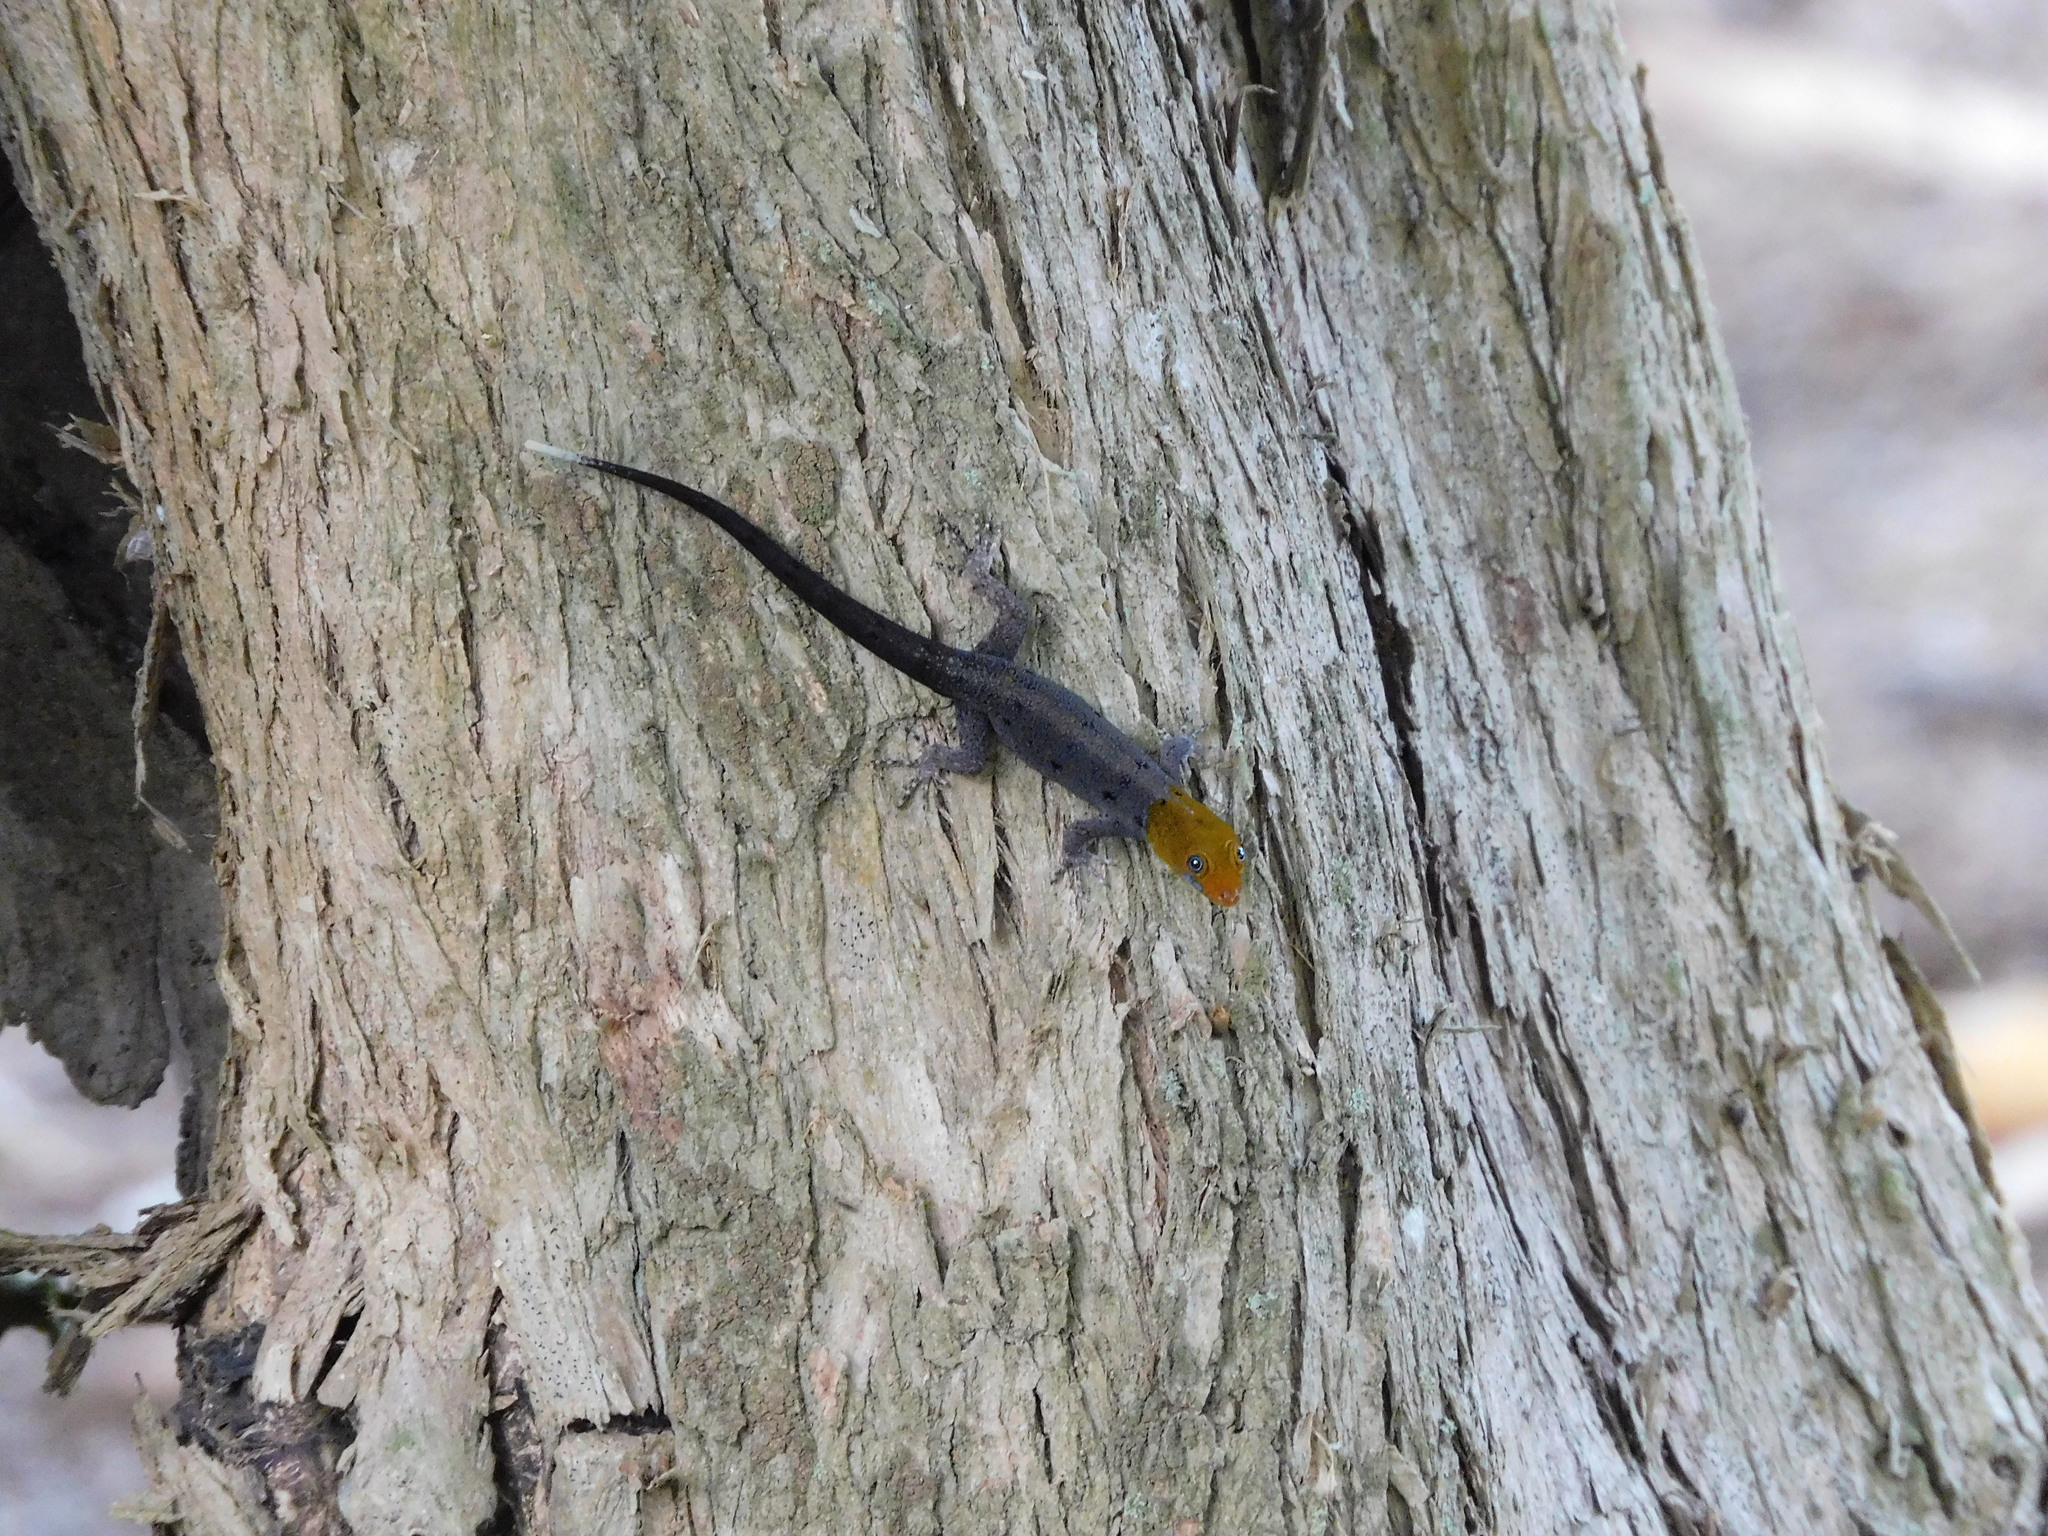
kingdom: Animalia
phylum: Chordata
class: Squamata
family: Sphaerodactylidae
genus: Gonatodes
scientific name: Gonatodes albogularis
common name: Yellow-headed gecko
